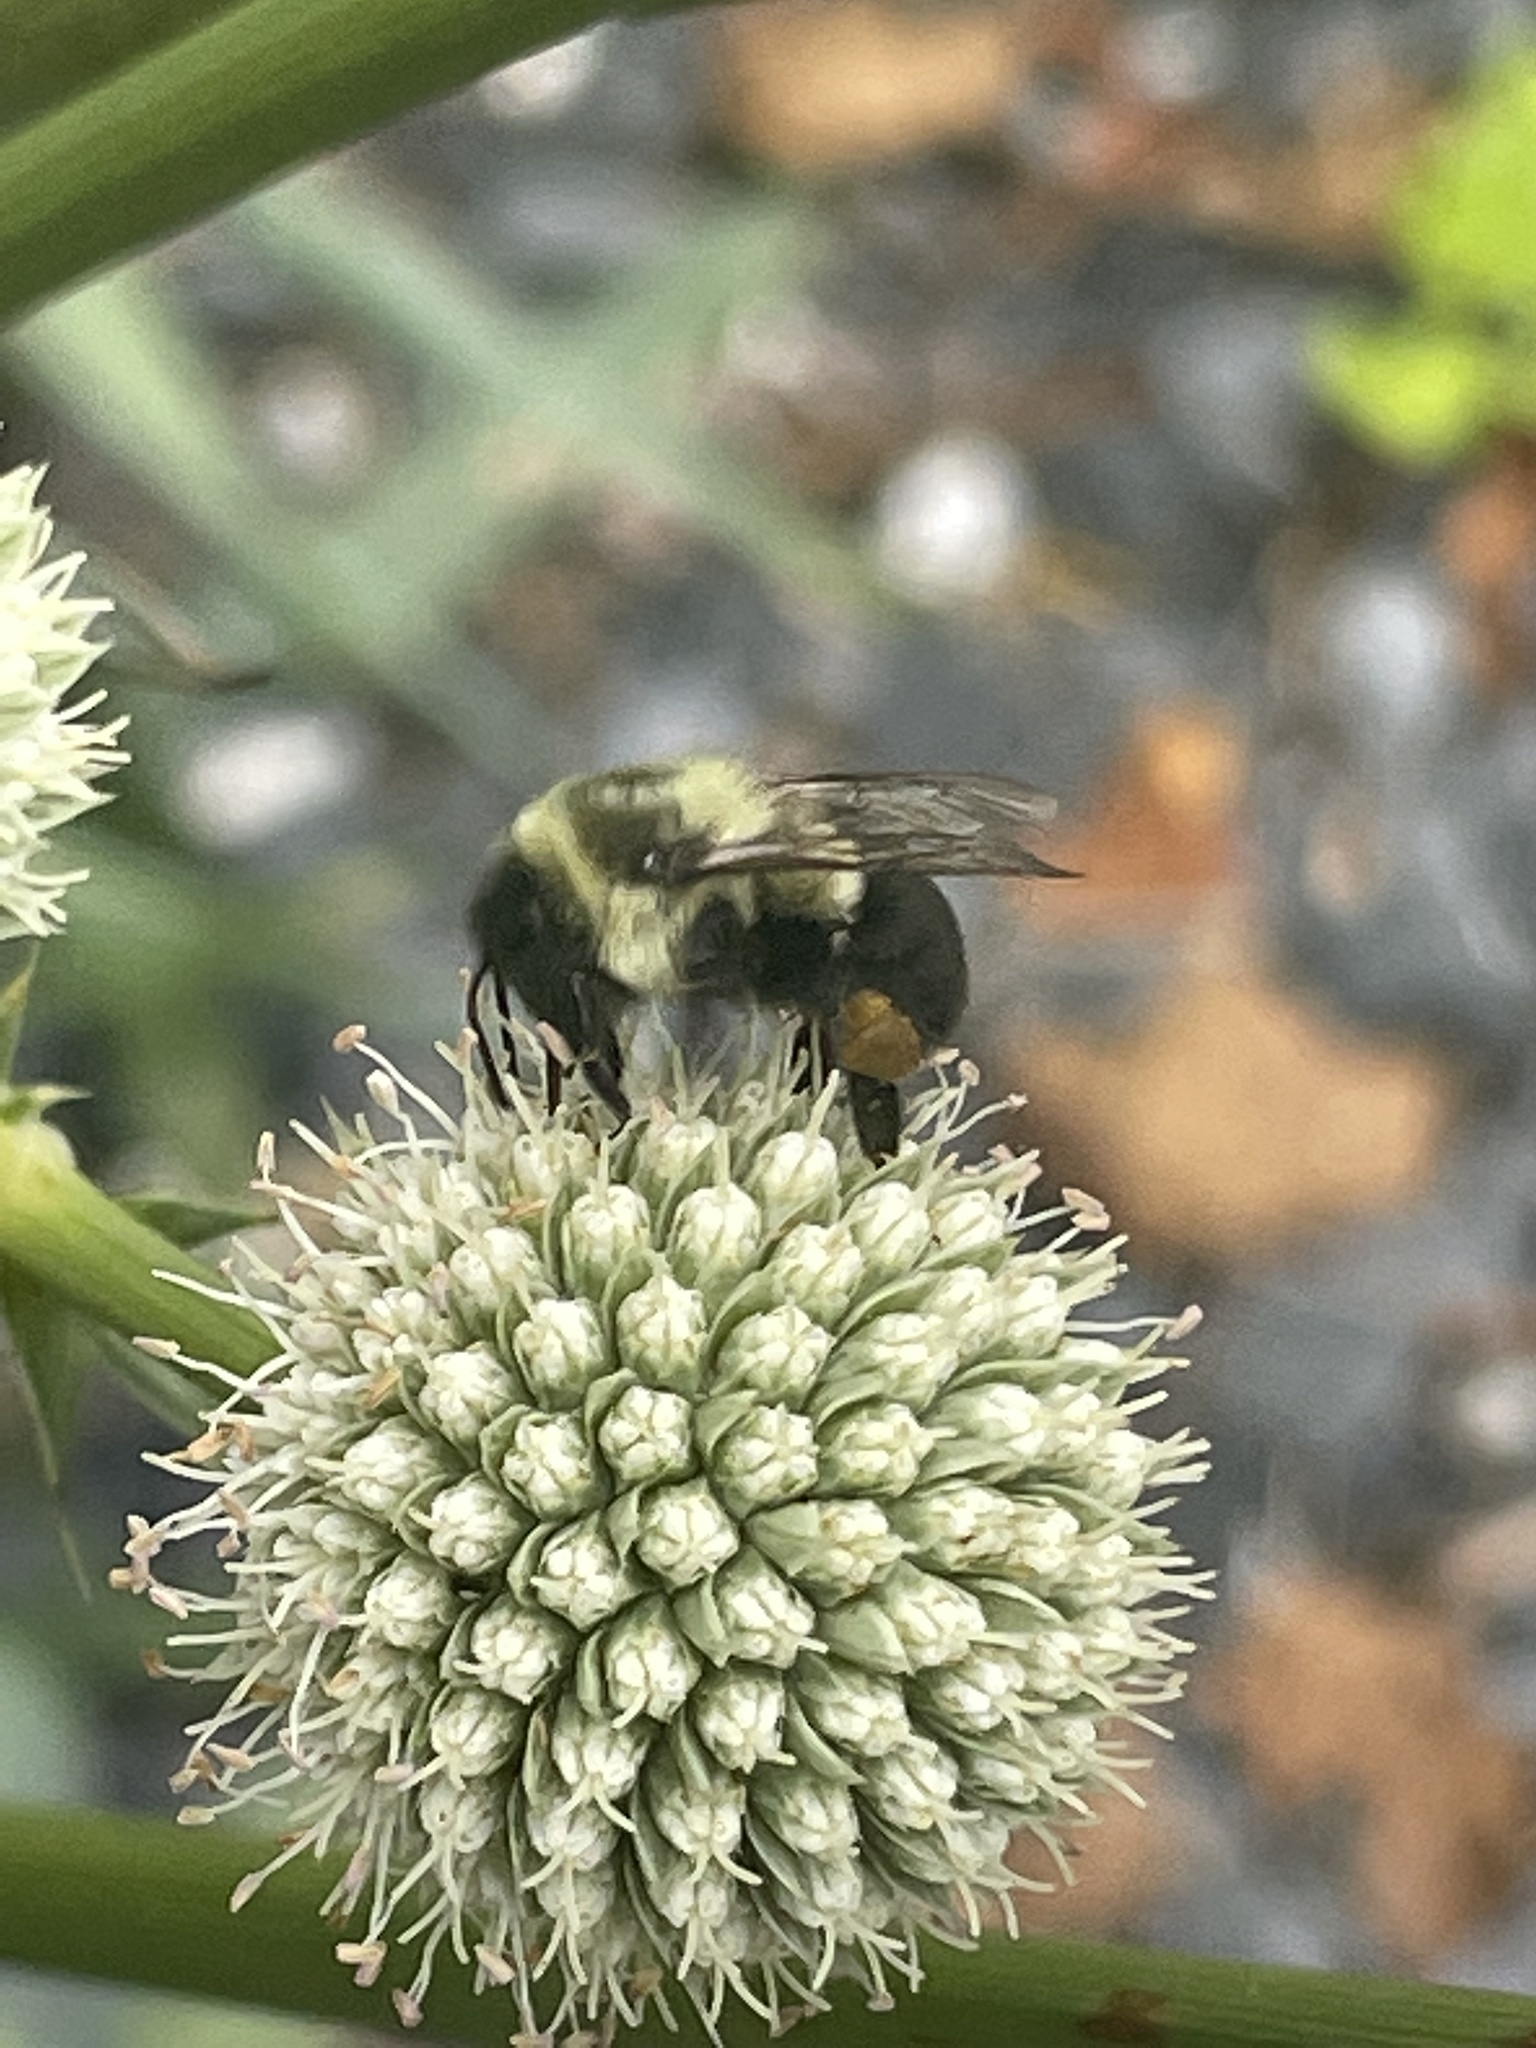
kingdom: Animalia
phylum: Arthropoda
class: Insecta
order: Hymenoptera
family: Apidae
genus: Bombus
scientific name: Bombus impatiens
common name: Common eastern bumble bee
